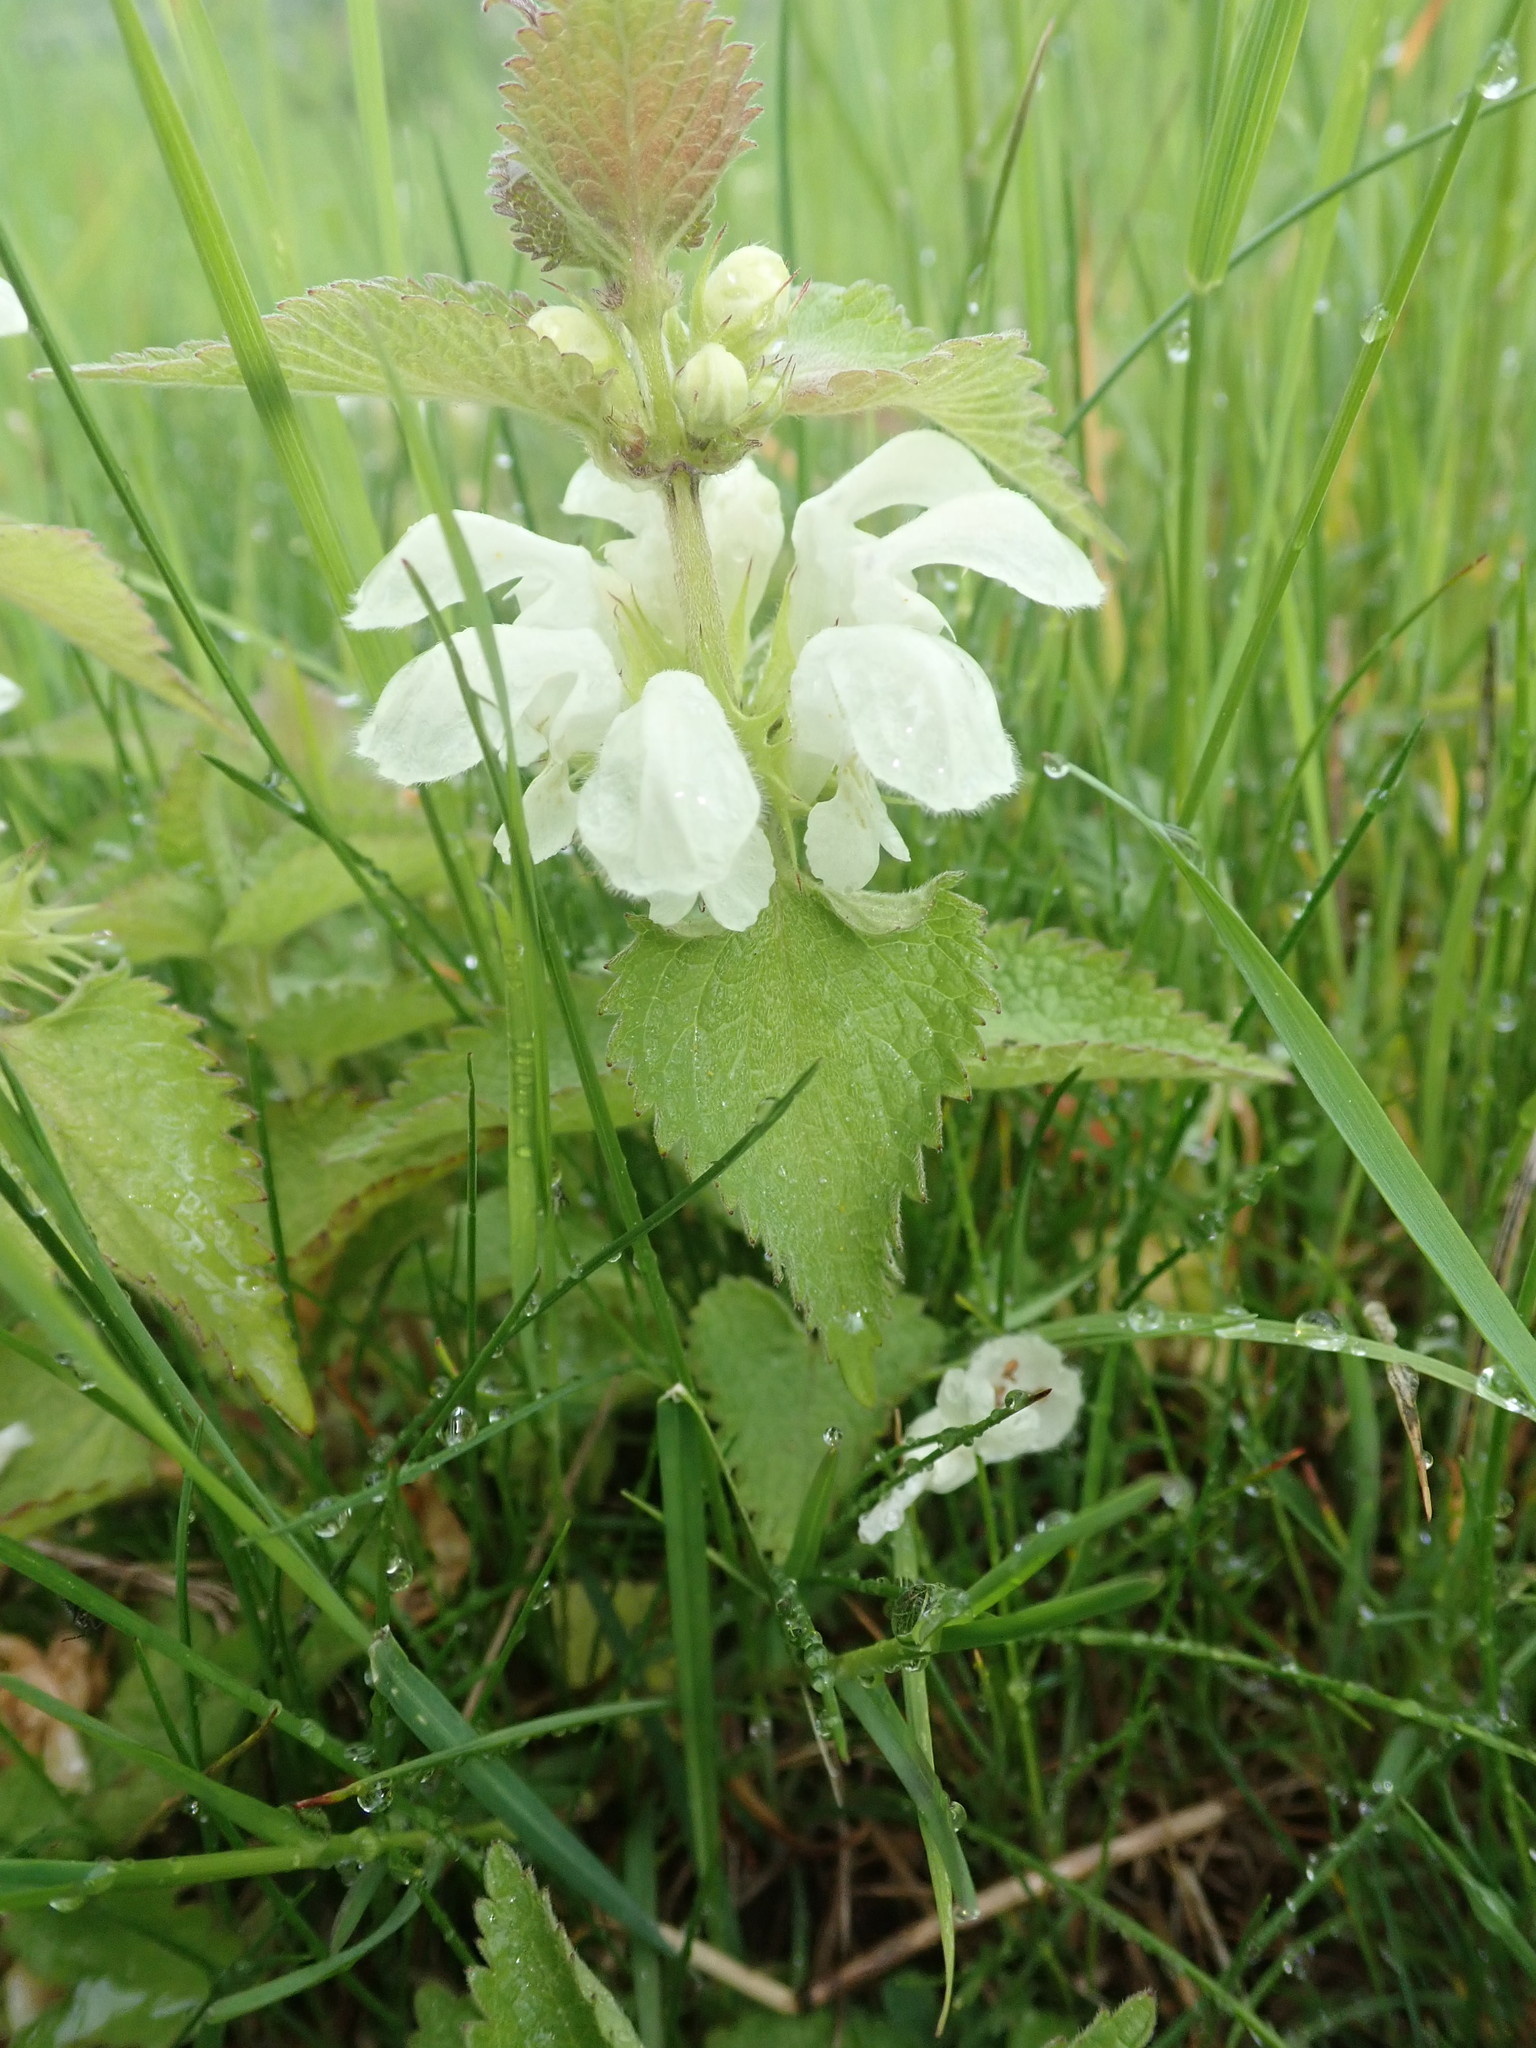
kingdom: Plantae
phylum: Tracheophyta
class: Magnoliopsida
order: Lamiales
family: Lamiaceae
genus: Lamium
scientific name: Lamium album
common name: White dead-nettle
